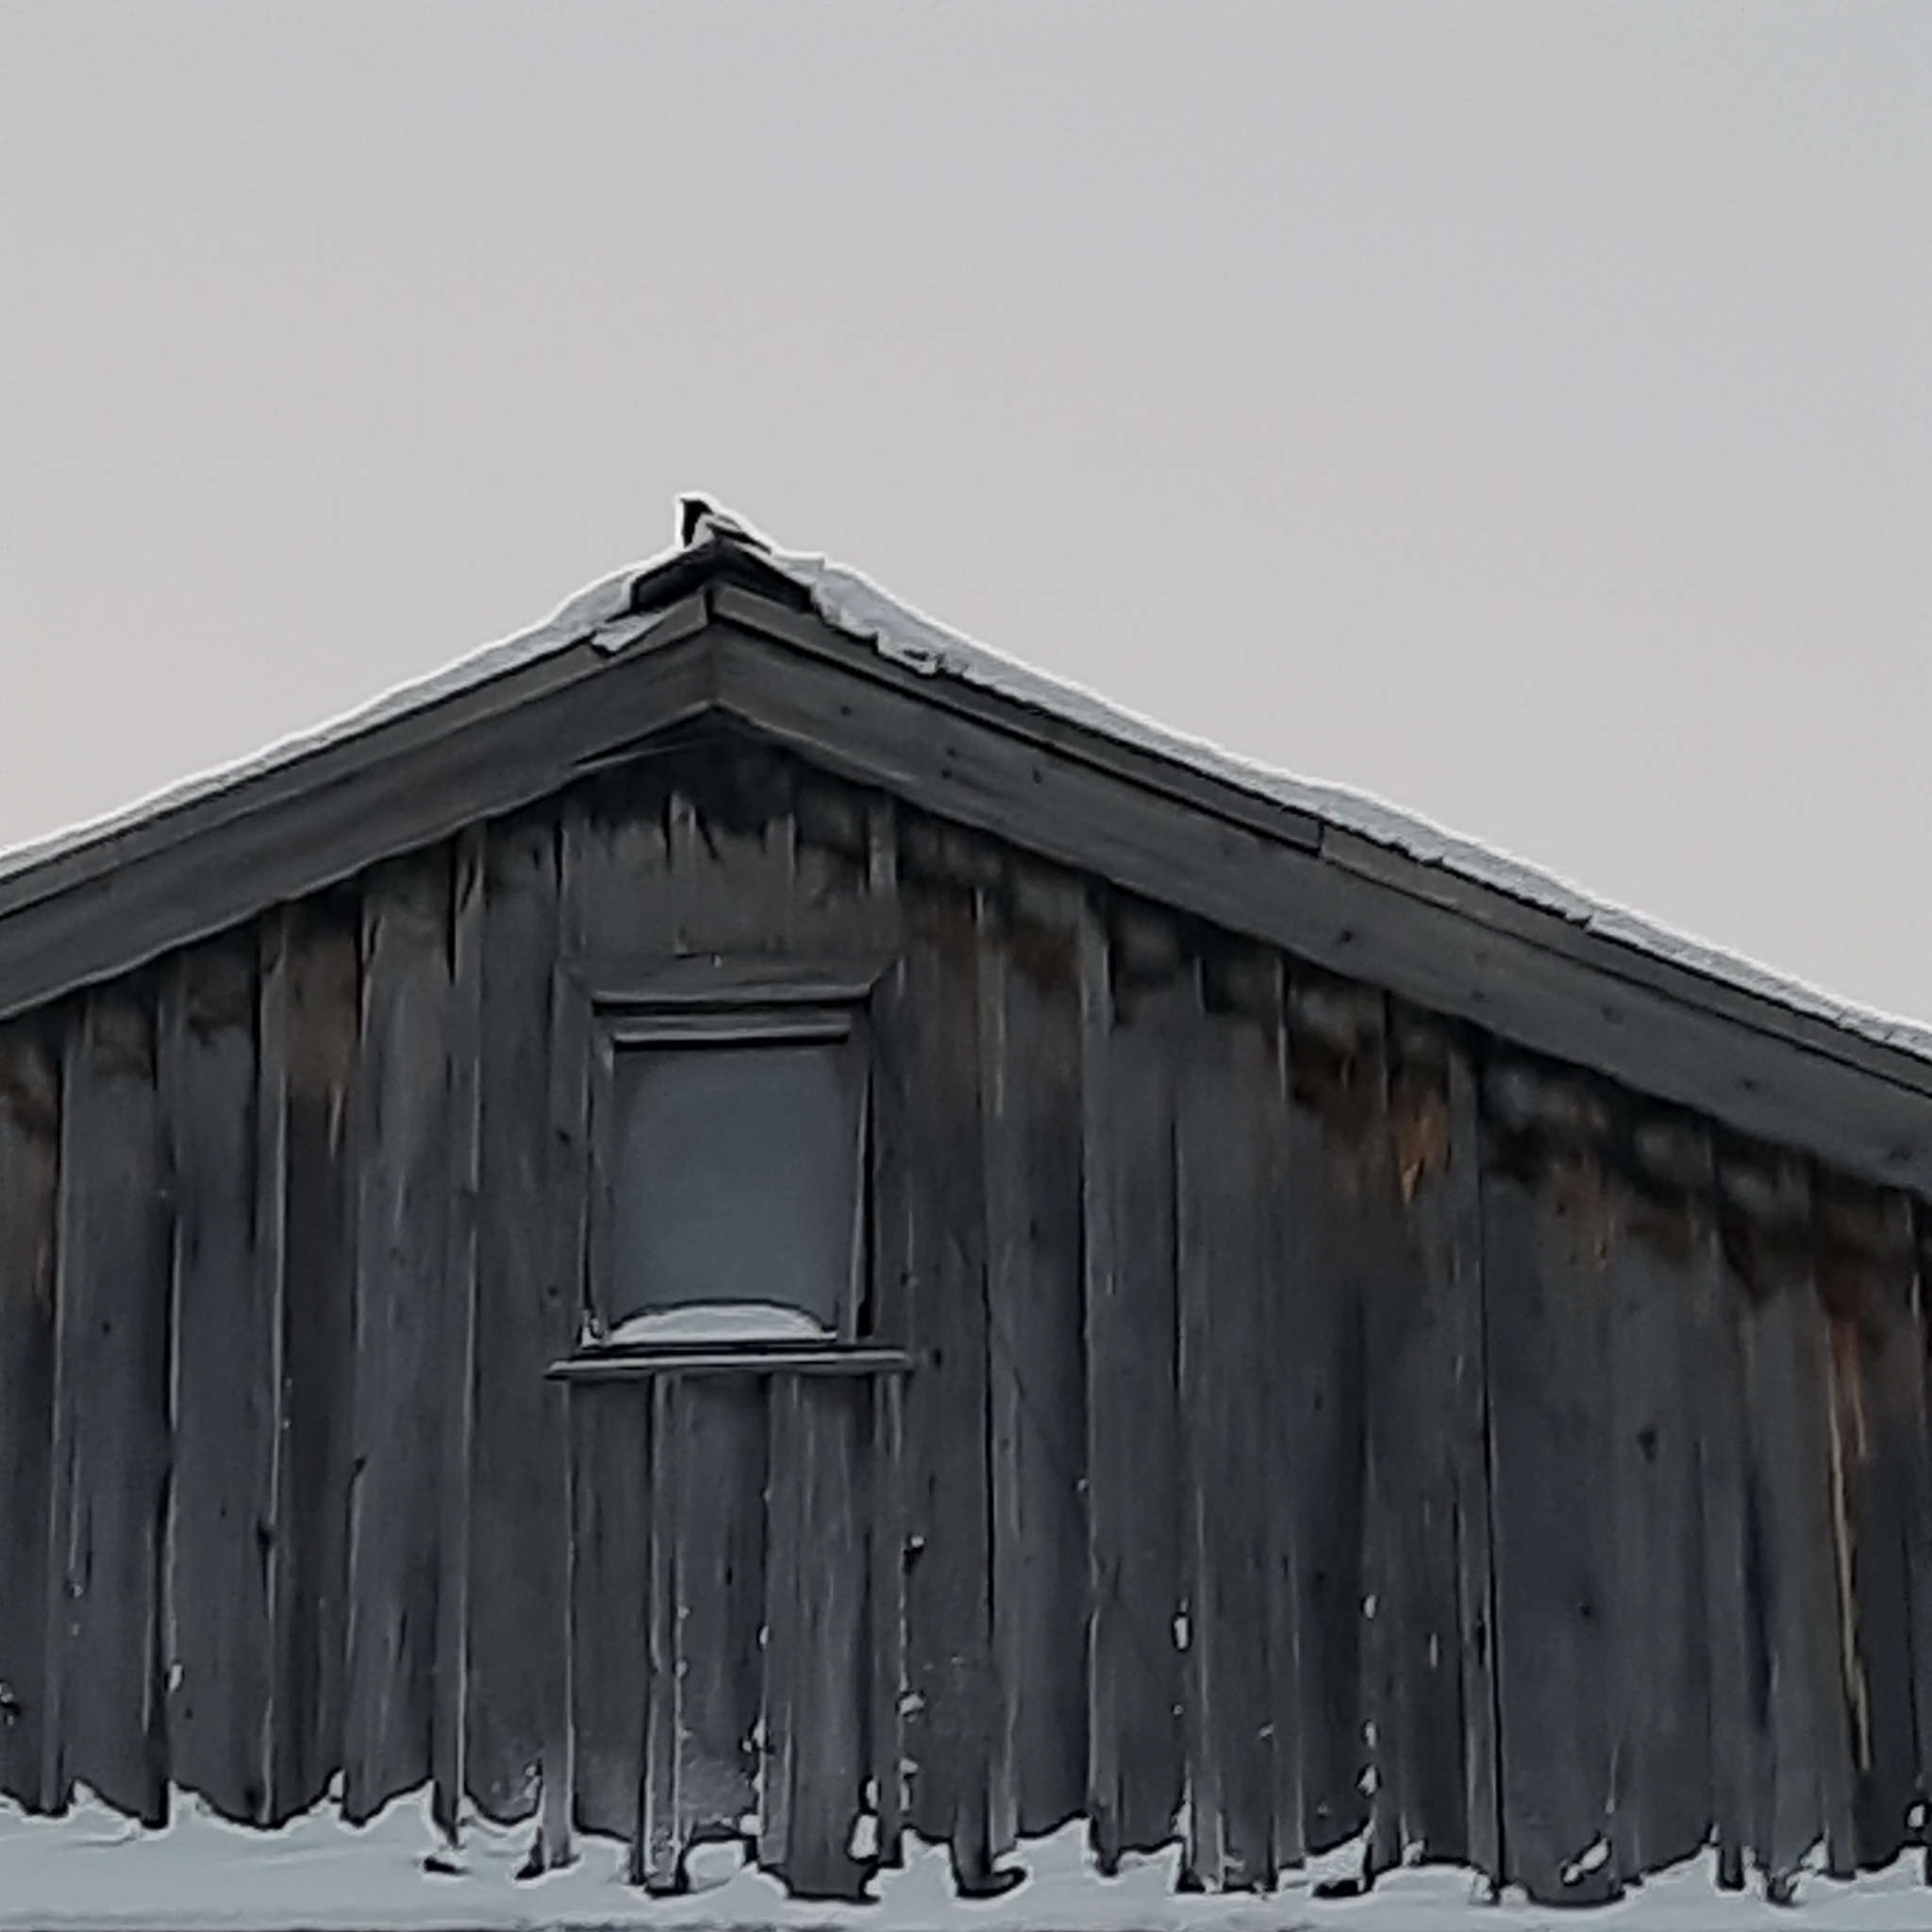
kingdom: Animalia
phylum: Chordata
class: Aves
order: Passeriformes
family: Corvidae
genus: Pica
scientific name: Pica pica
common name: Eurasian magpie
